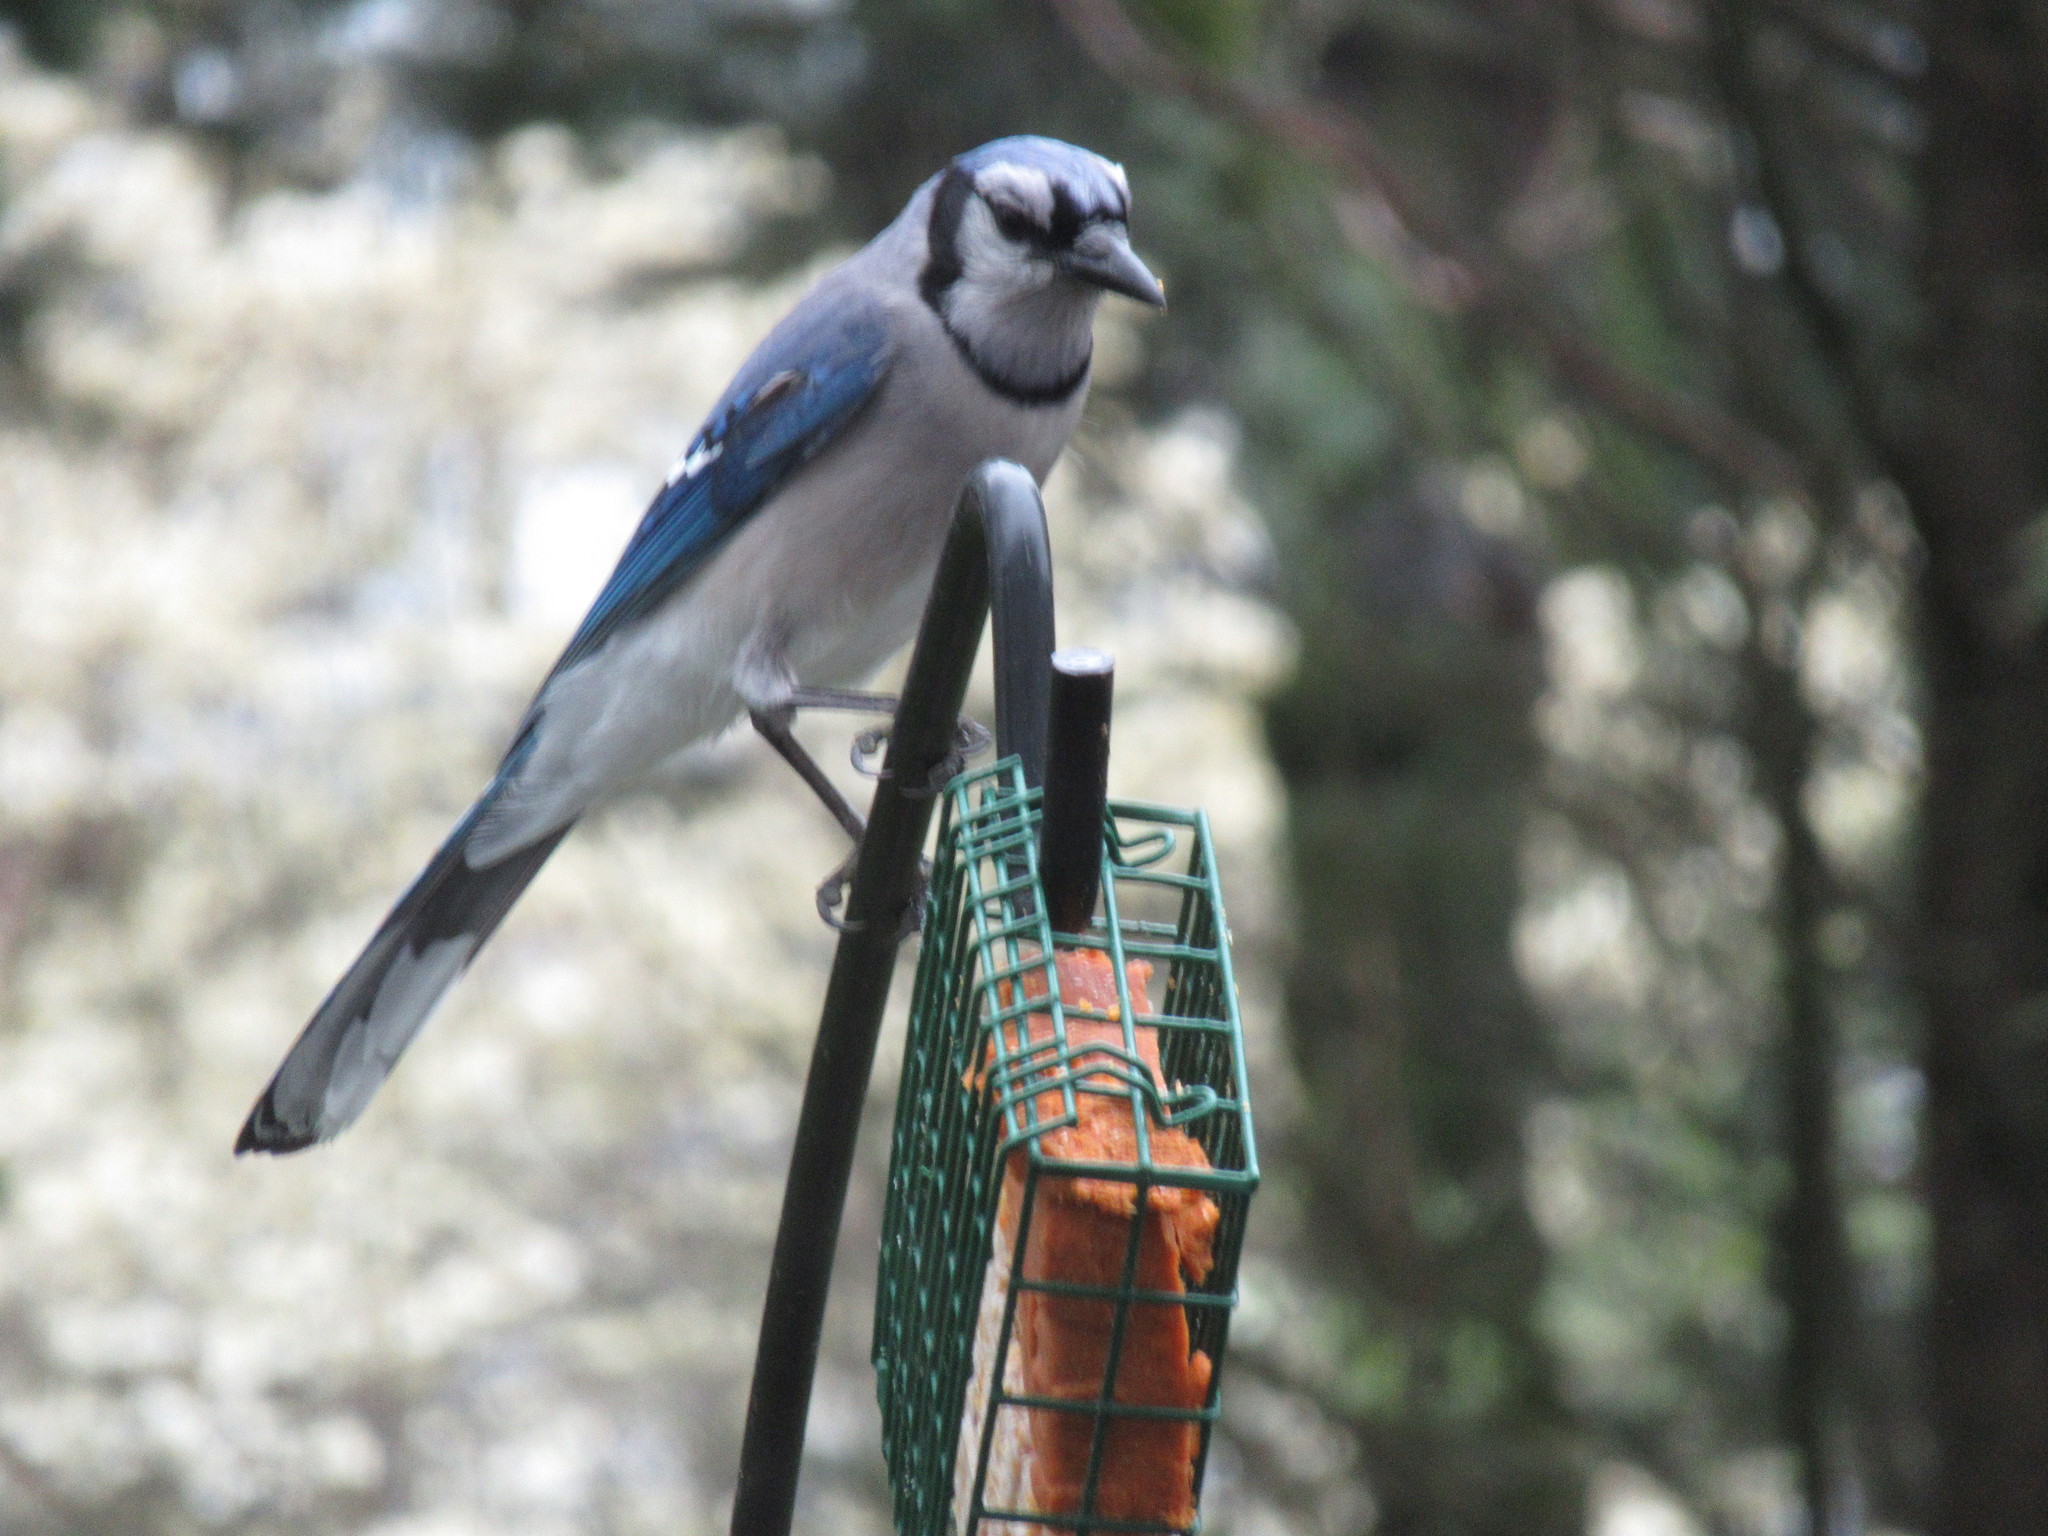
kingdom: Animalia
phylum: Chordata
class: Aves
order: Passeriformes
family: Corvidae
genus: Cyanocitta
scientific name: Cyanocitta cristata
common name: Blue jay
